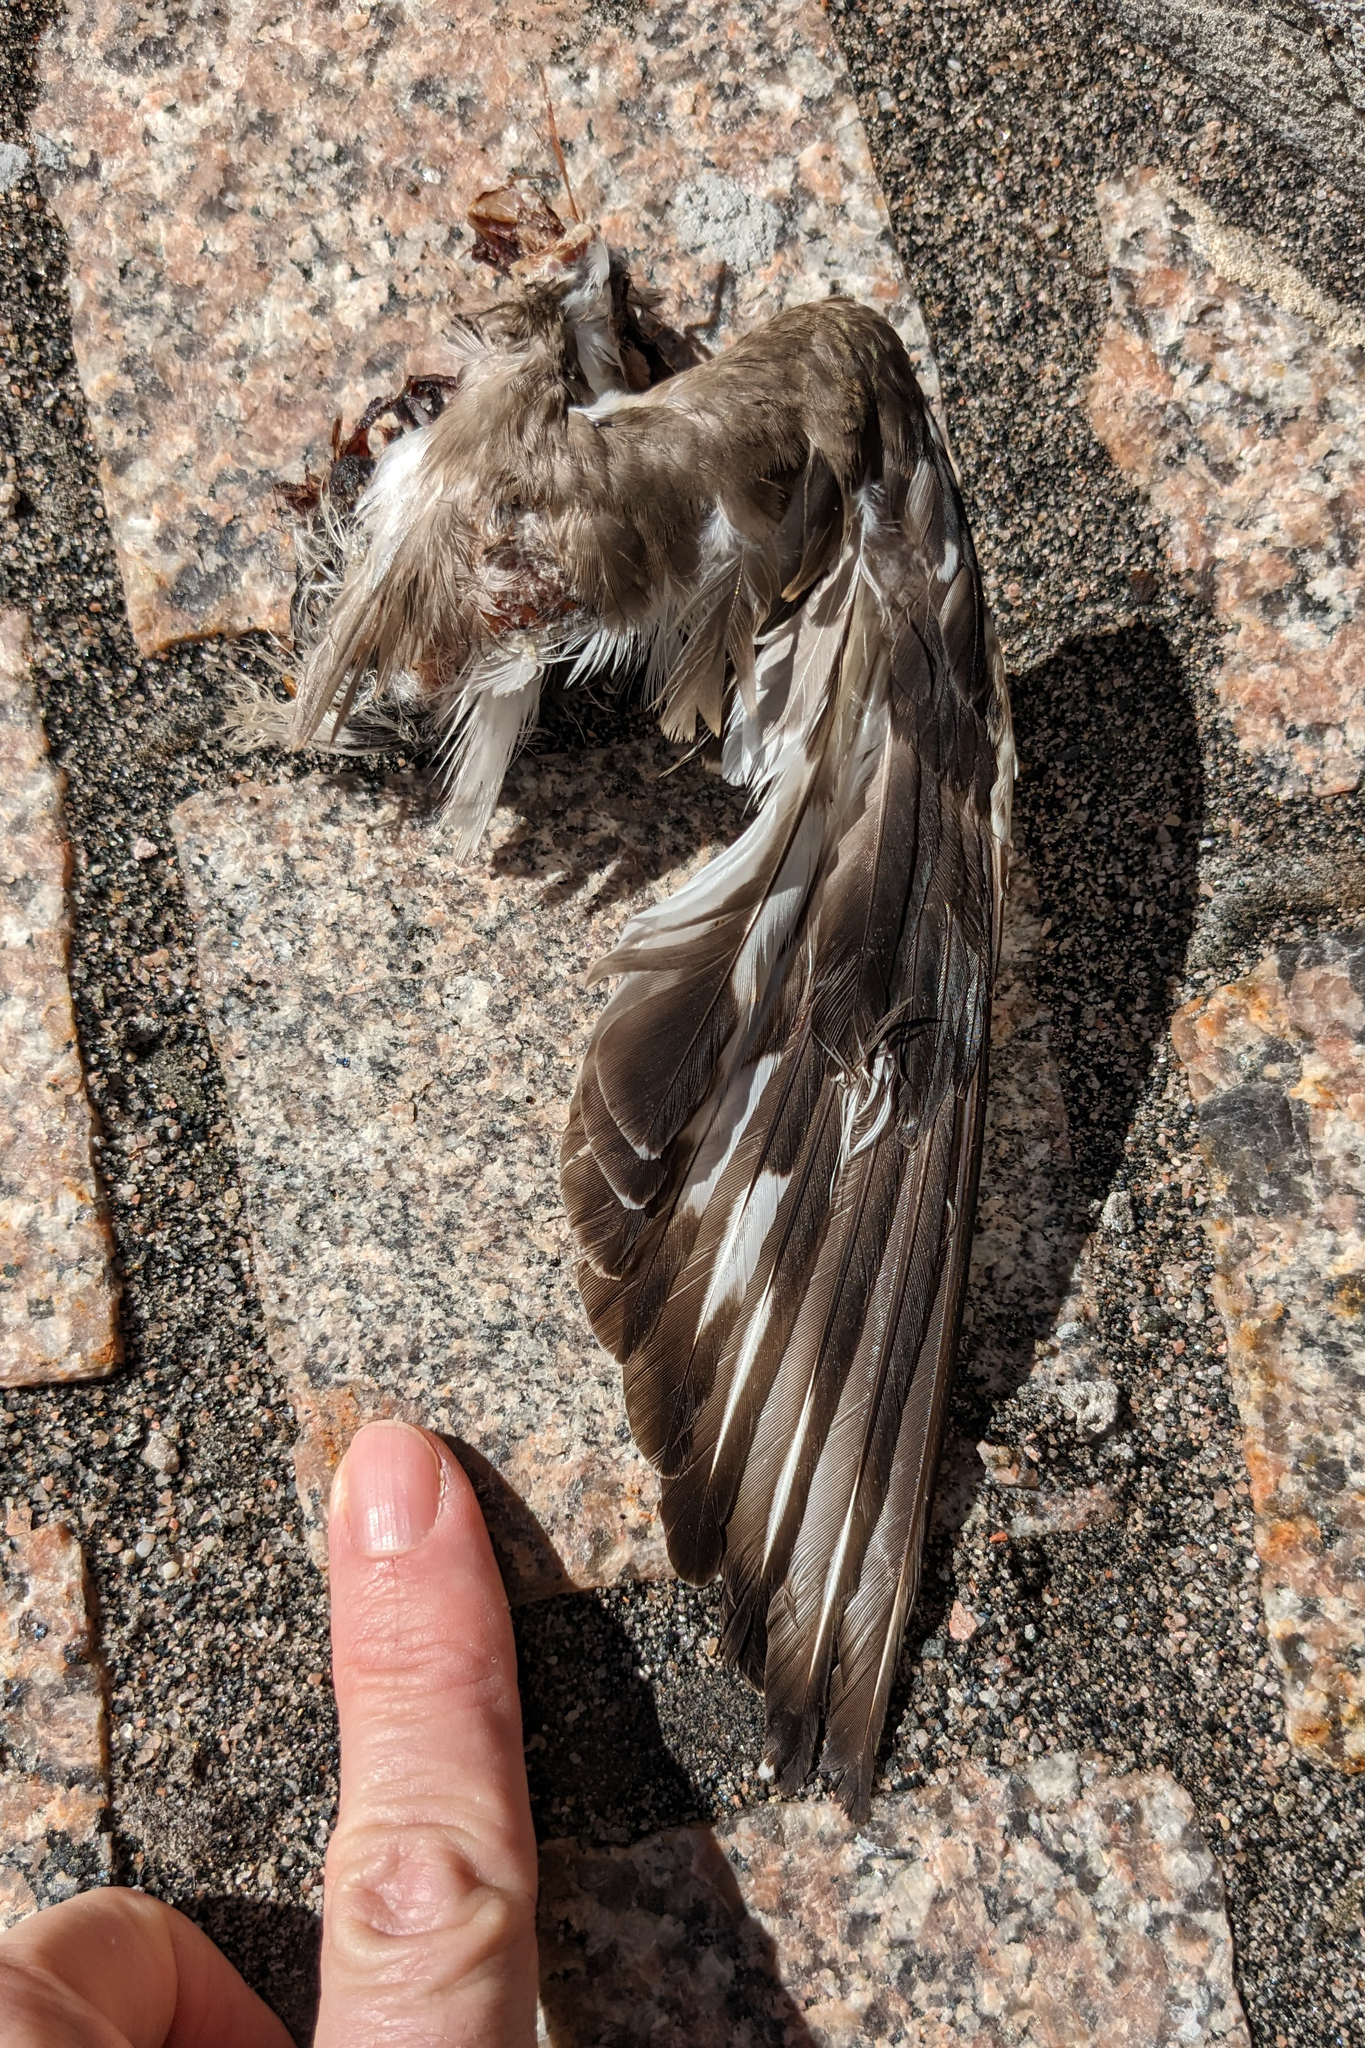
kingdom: Animalia
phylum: Chordata
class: Aves
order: Charadriiformes
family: Charadriidae
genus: Charadrius
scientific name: Charadrius vociferus
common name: Killdeer
